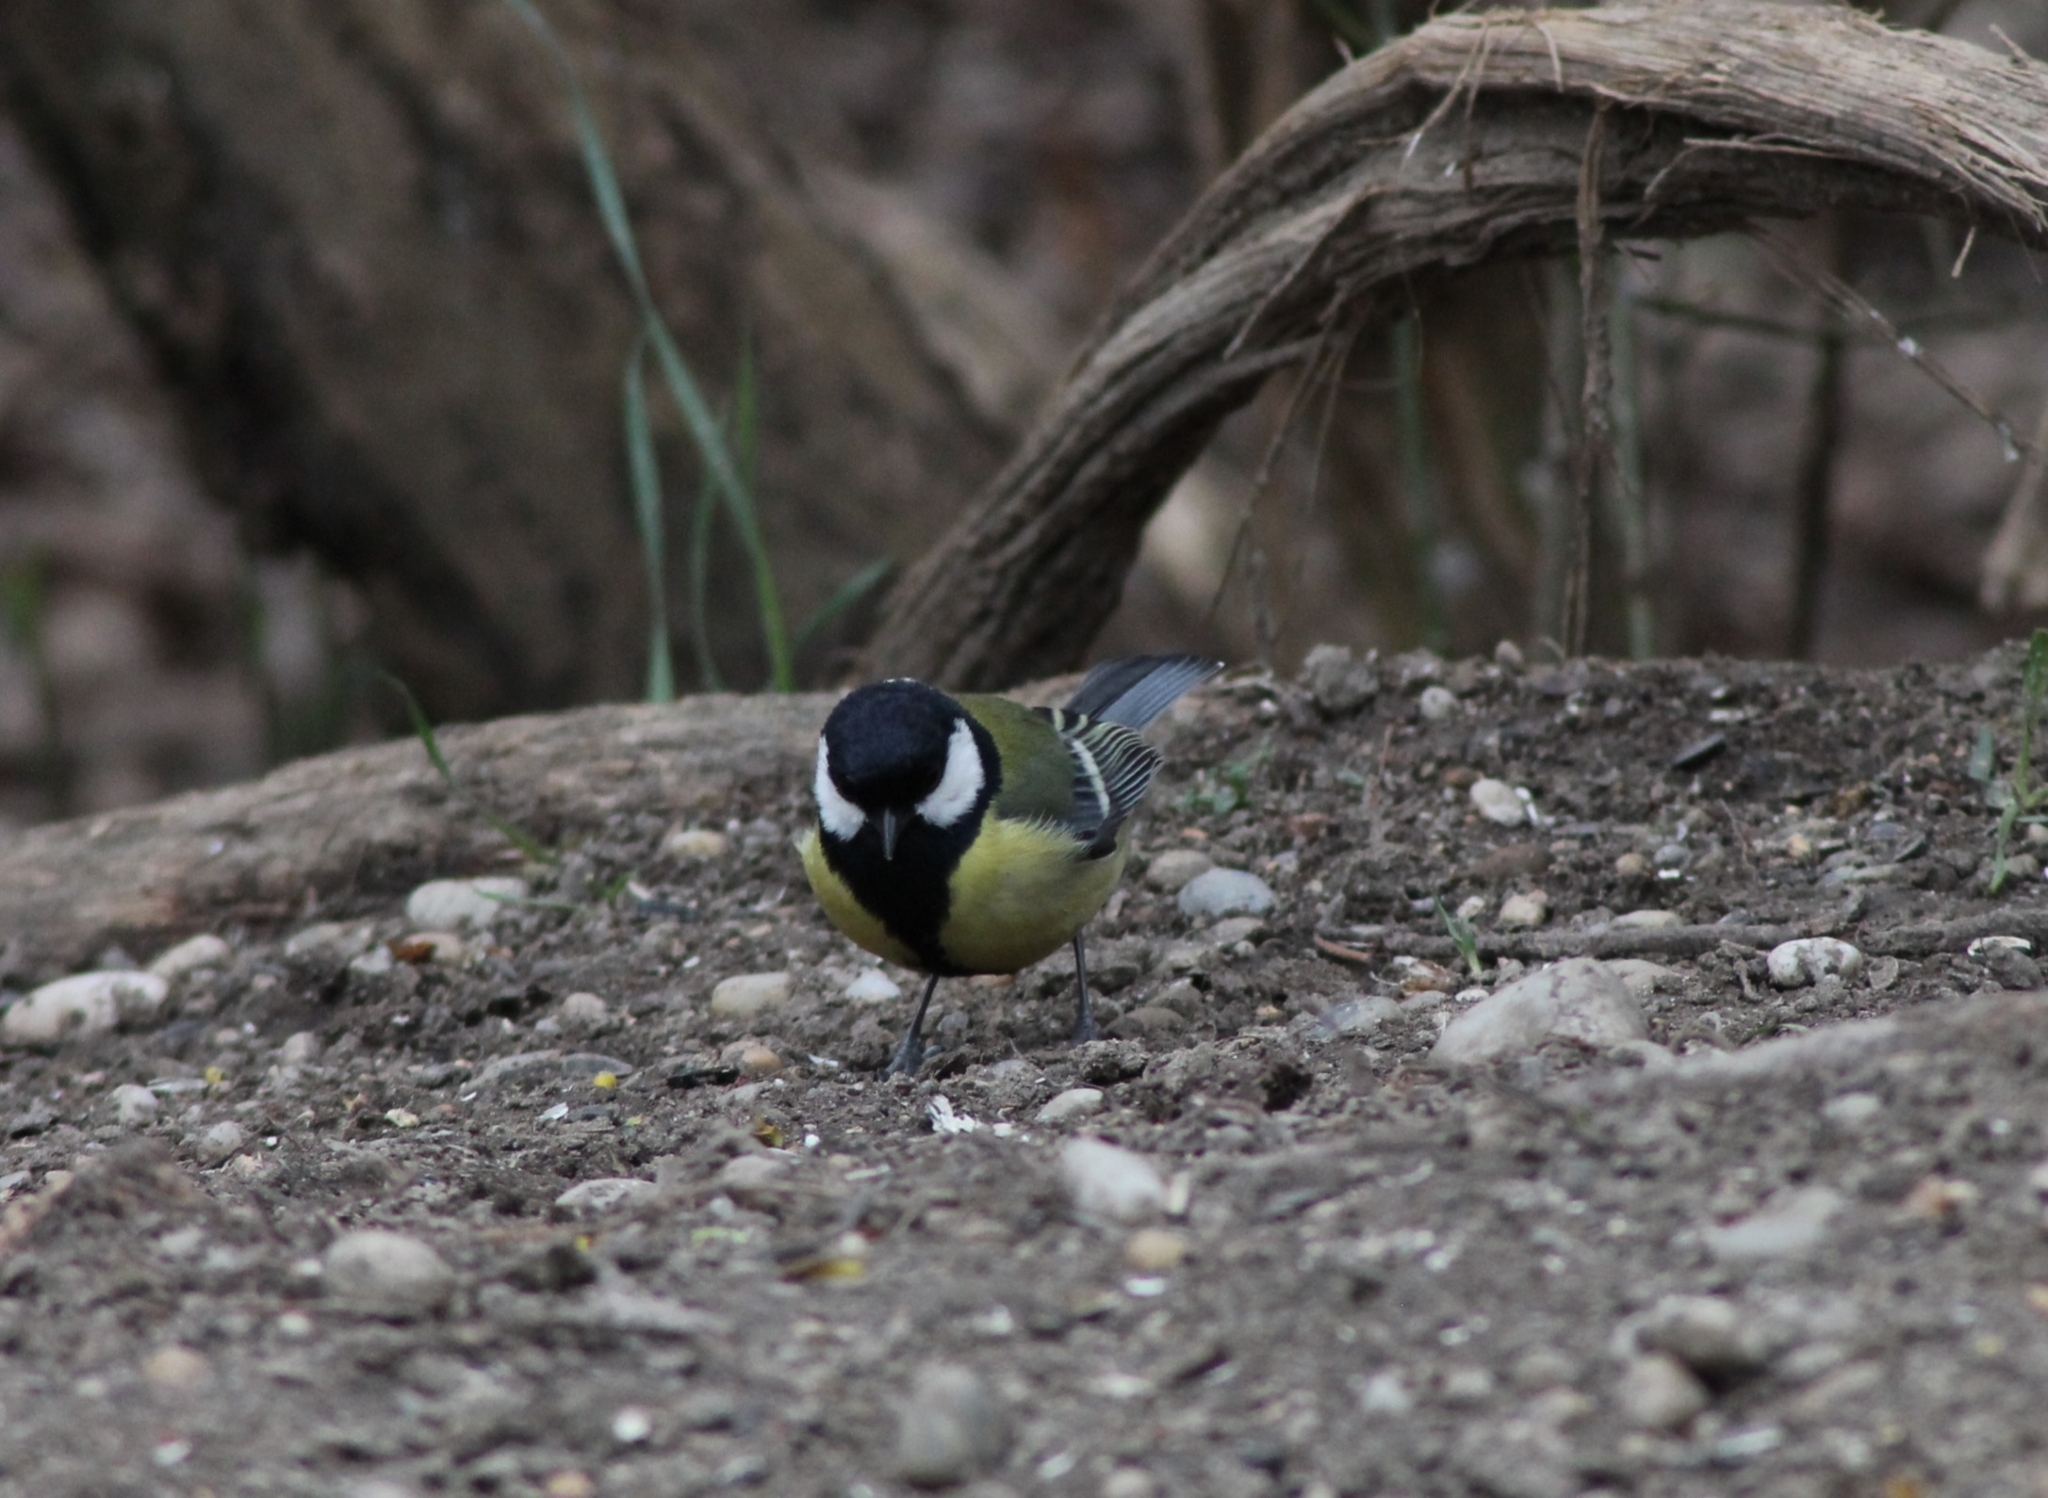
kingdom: Animalia
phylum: Chordata
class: Aves
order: Passeriformes
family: Paridae
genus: Parus
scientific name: Parus major
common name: Great tit
